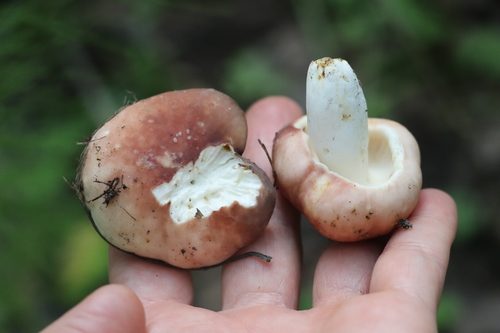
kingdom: Fungi
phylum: Basidiomycota
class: Agaricomycetes
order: Russulales
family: Russulaceae
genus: Russula
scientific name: Russula vesca
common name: Bare-toothed russula
